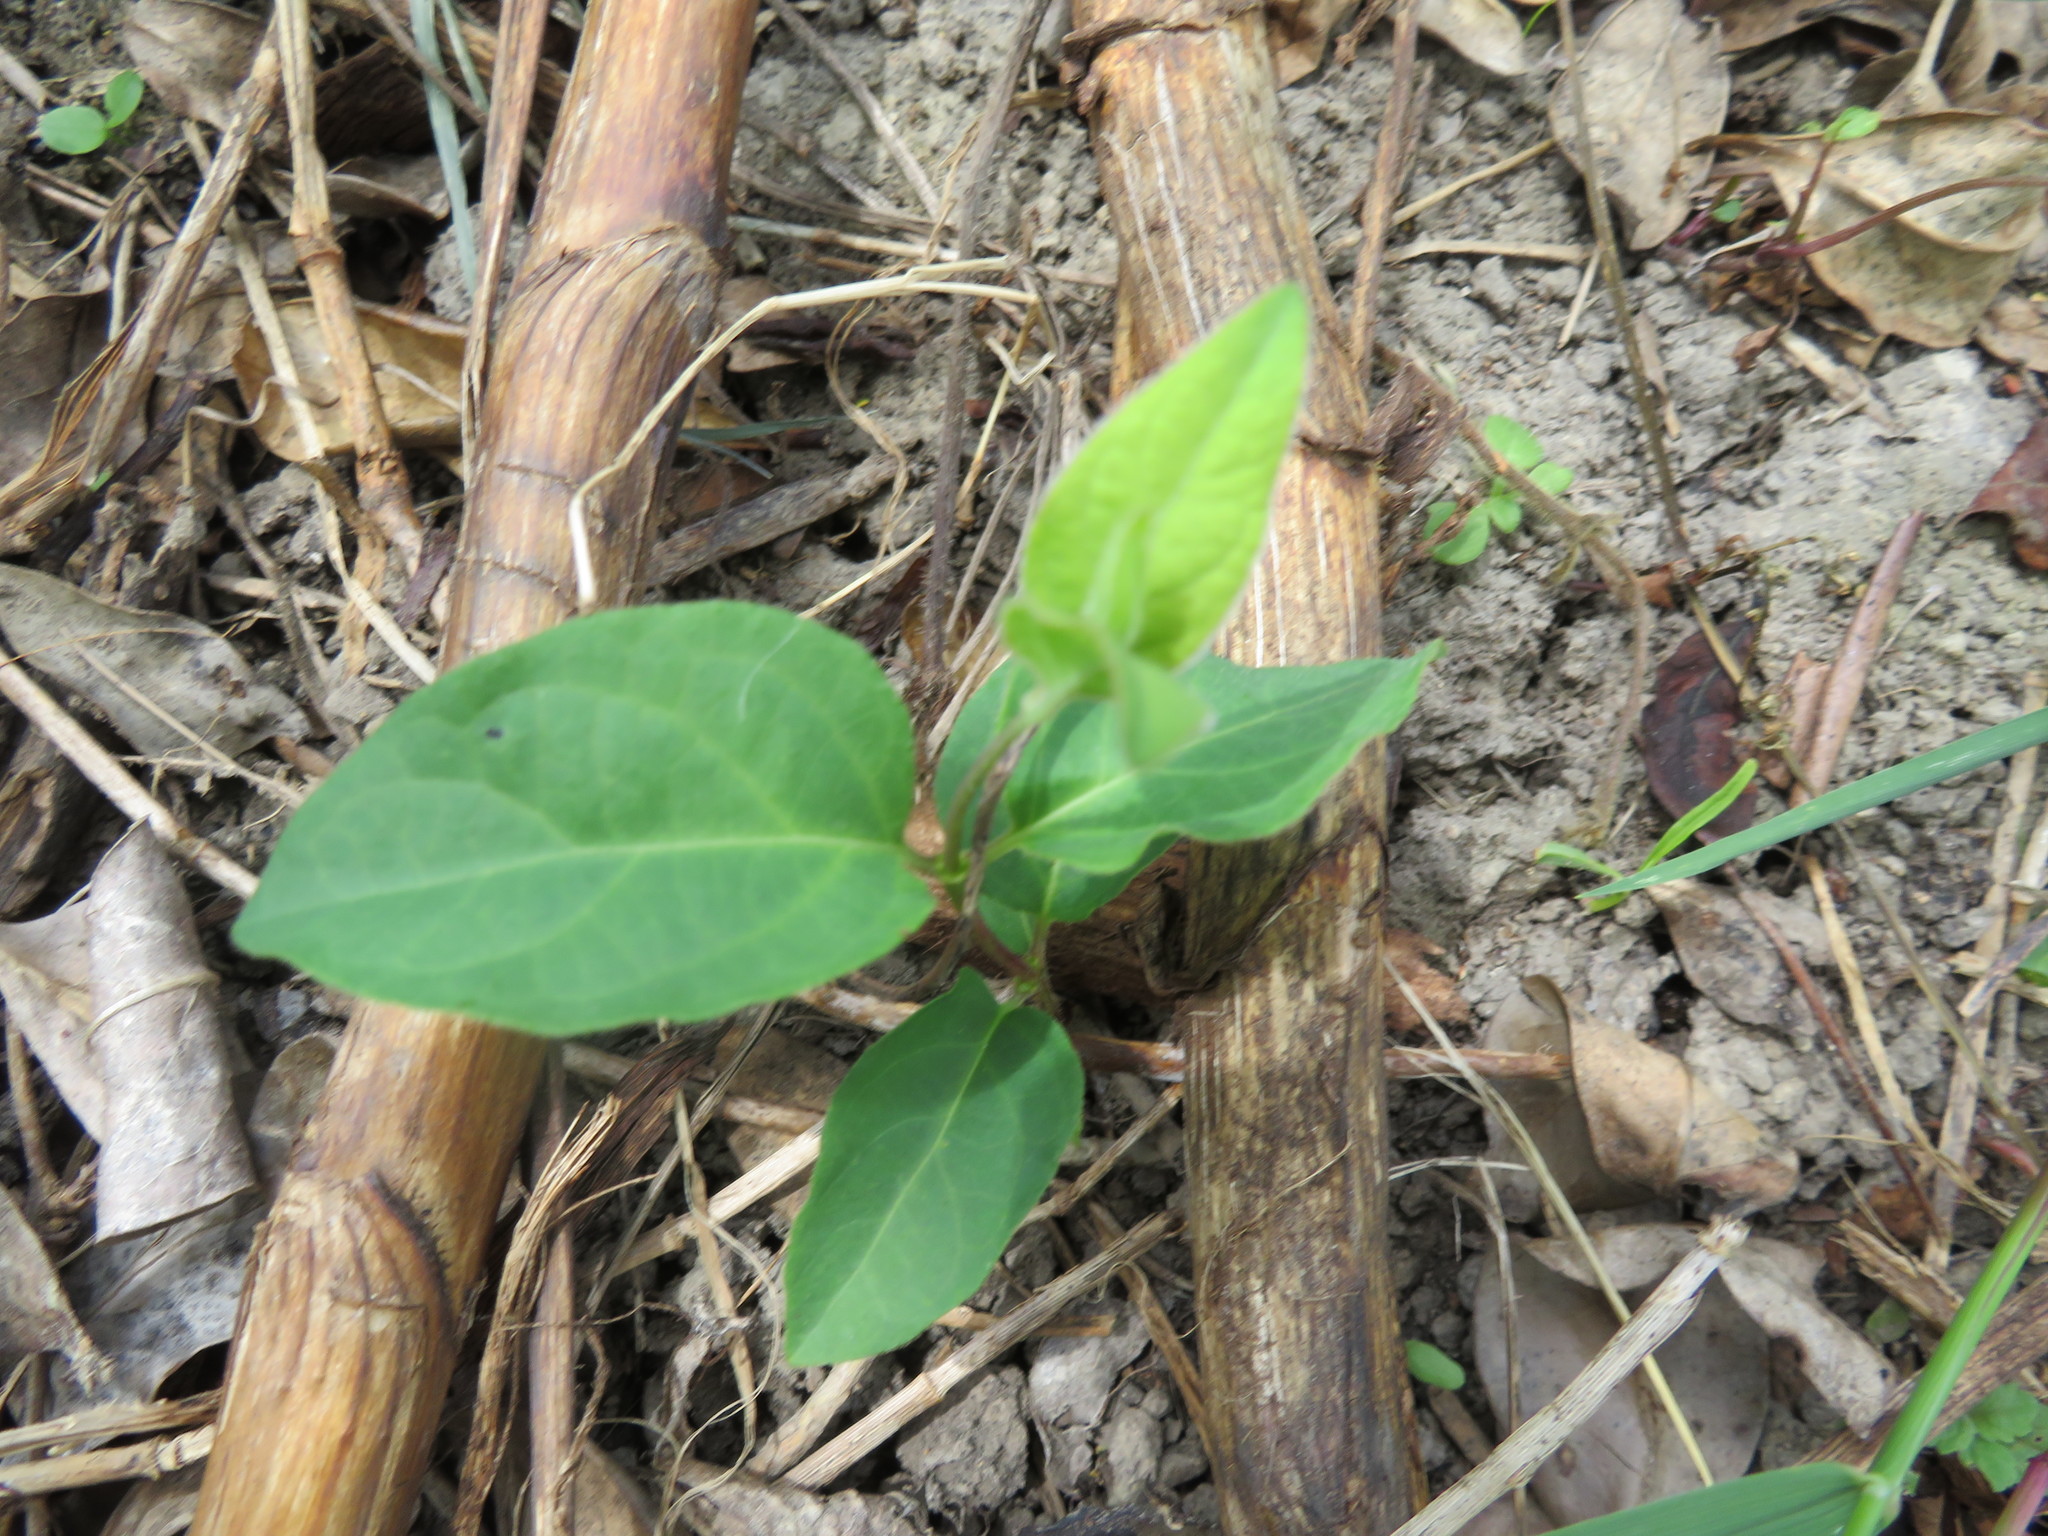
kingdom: Plantae
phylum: Tracheophyta
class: Magnoliopsida
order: Dipsacales
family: Caprifoliaceae
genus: Lonicera
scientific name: Lonicera japonica
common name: Japanese honeysuckle
